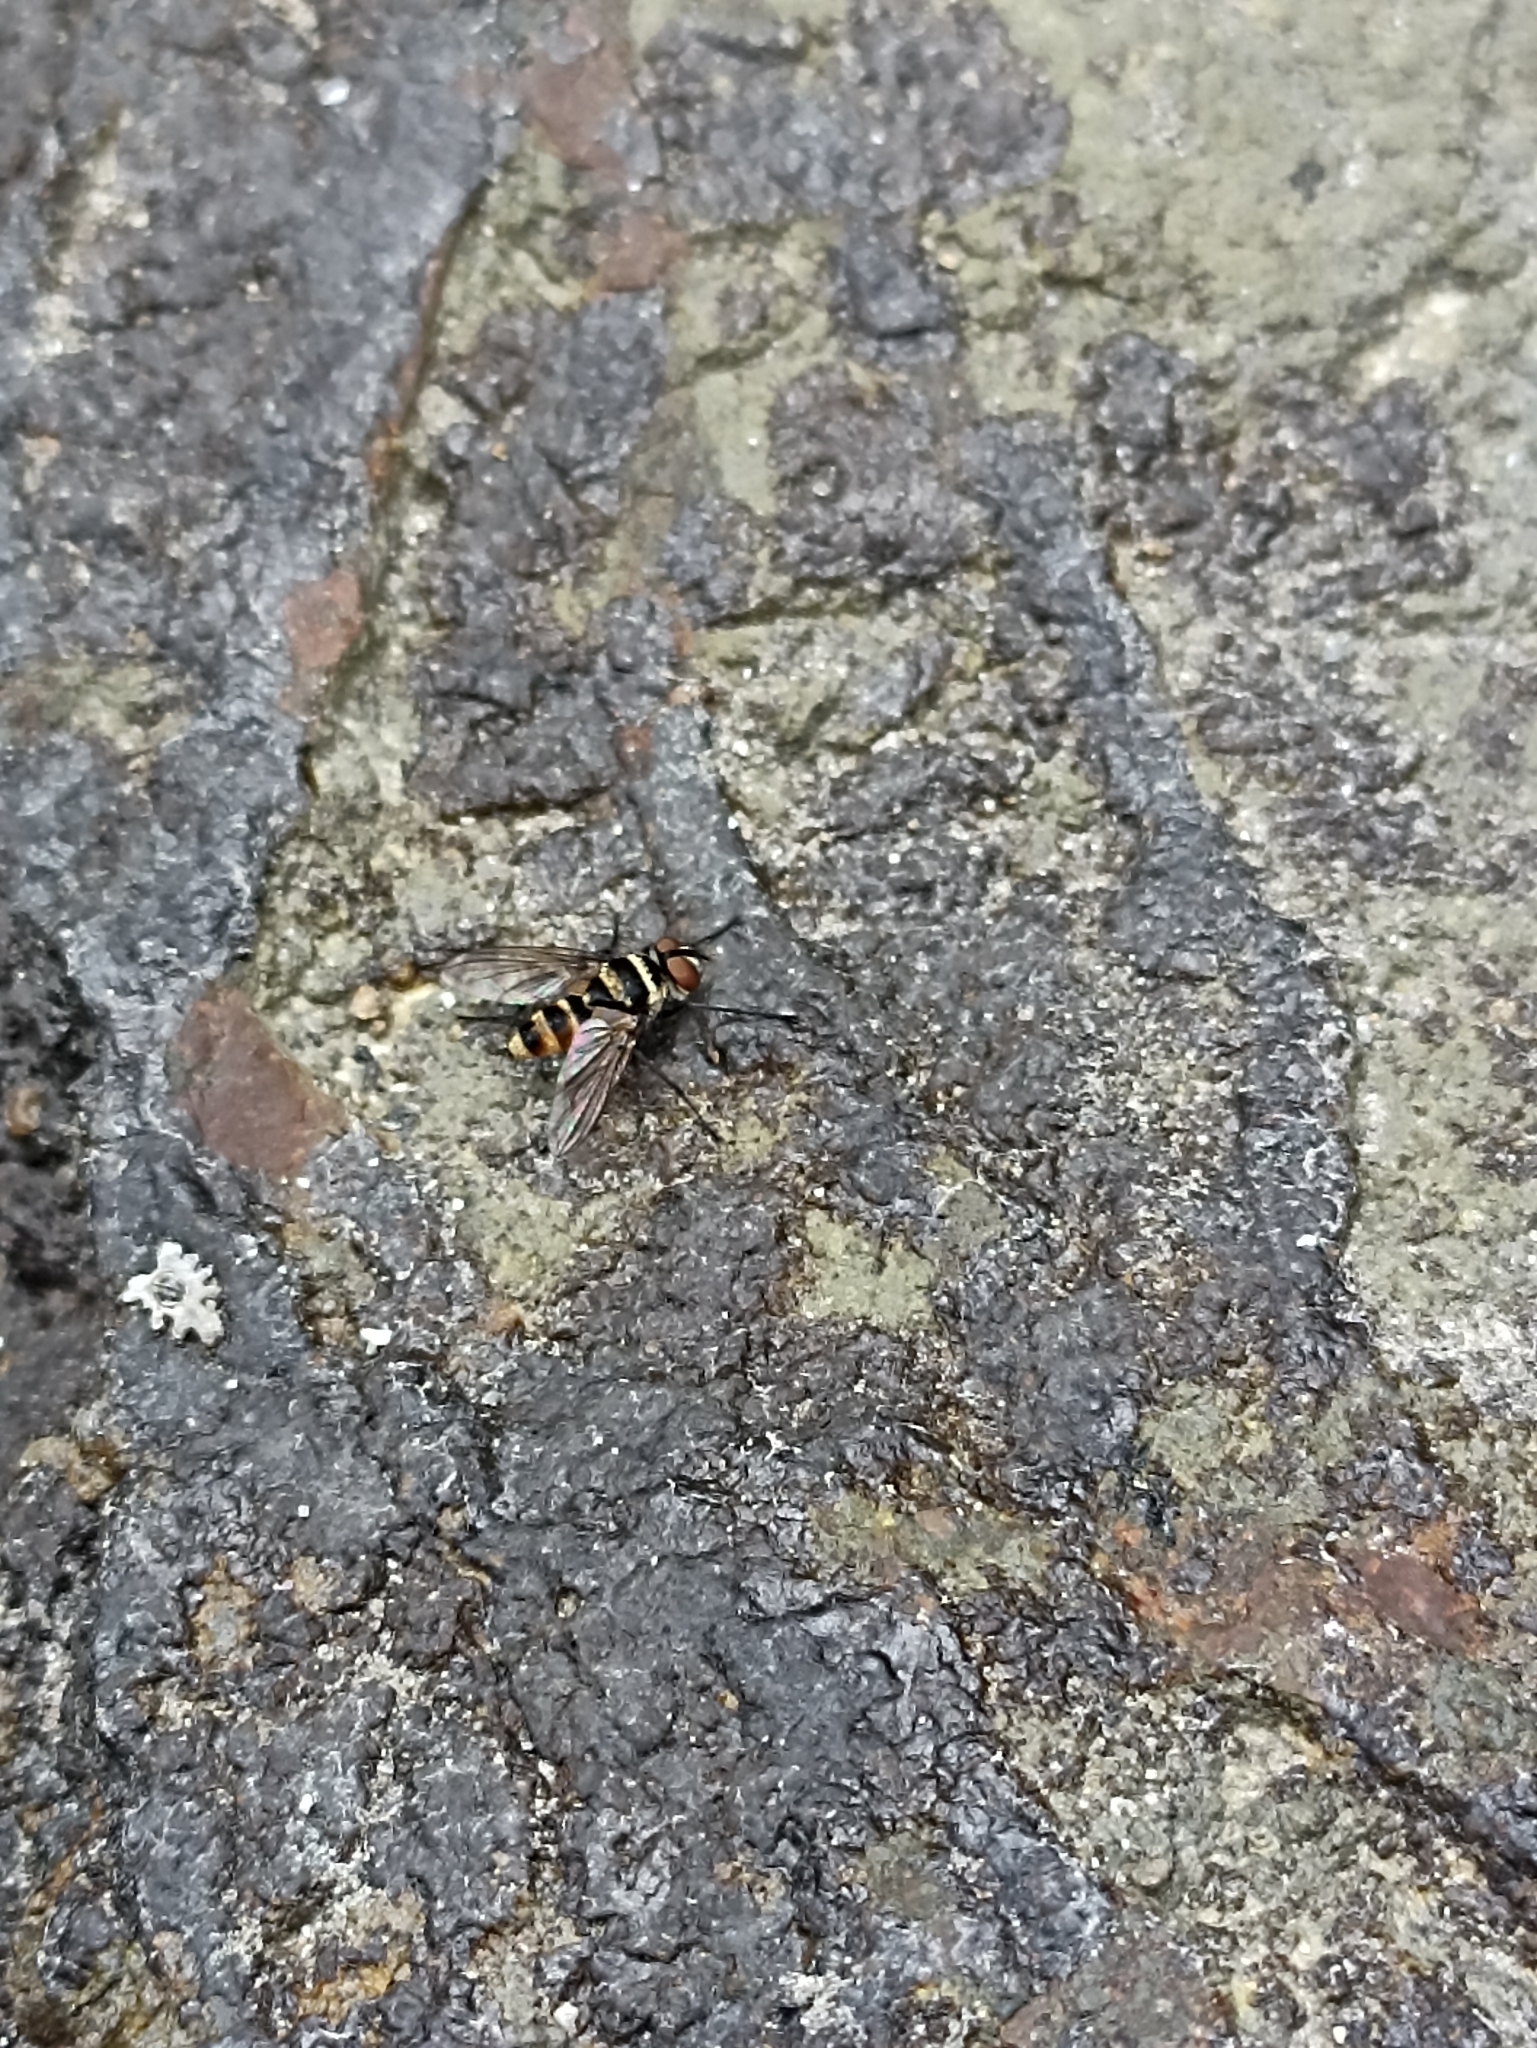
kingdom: Animalia
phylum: Arthropoda
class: Insecta
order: Diptera
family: Tachinidae
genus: Trigonospila
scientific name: Trigonospila brevifacies
